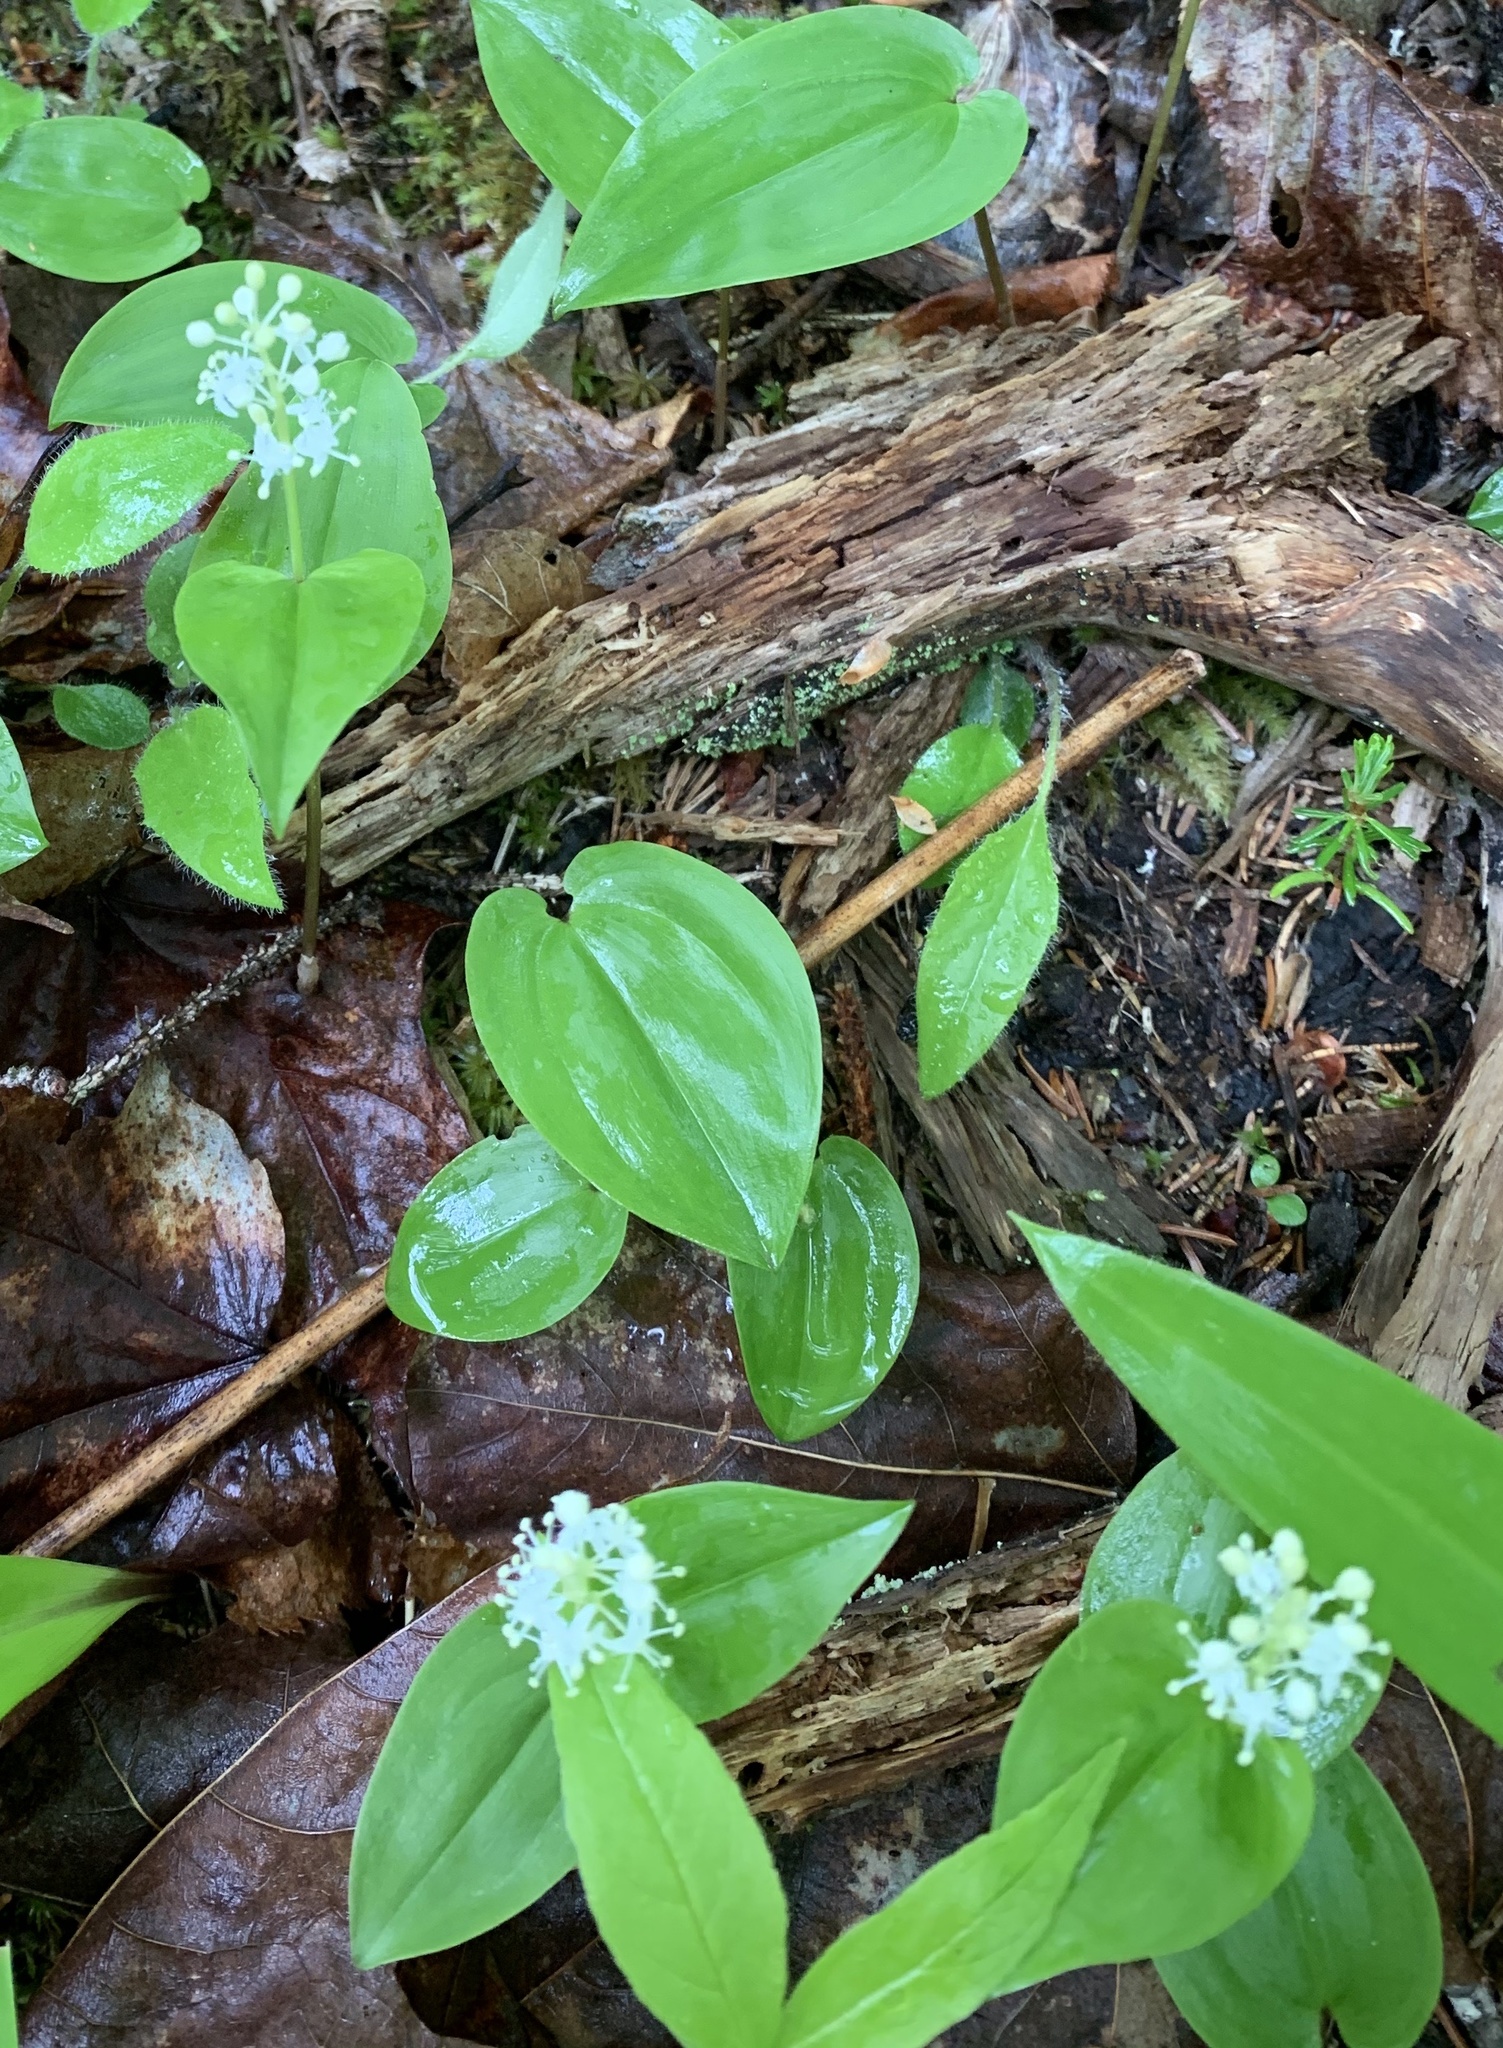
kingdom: Plantae
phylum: Tracheophyta
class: Liliopsida
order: Asparagales
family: Asparagaceae
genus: Maianthemum
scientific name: Maianthemum canadense
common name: False lily-of-the-valley
